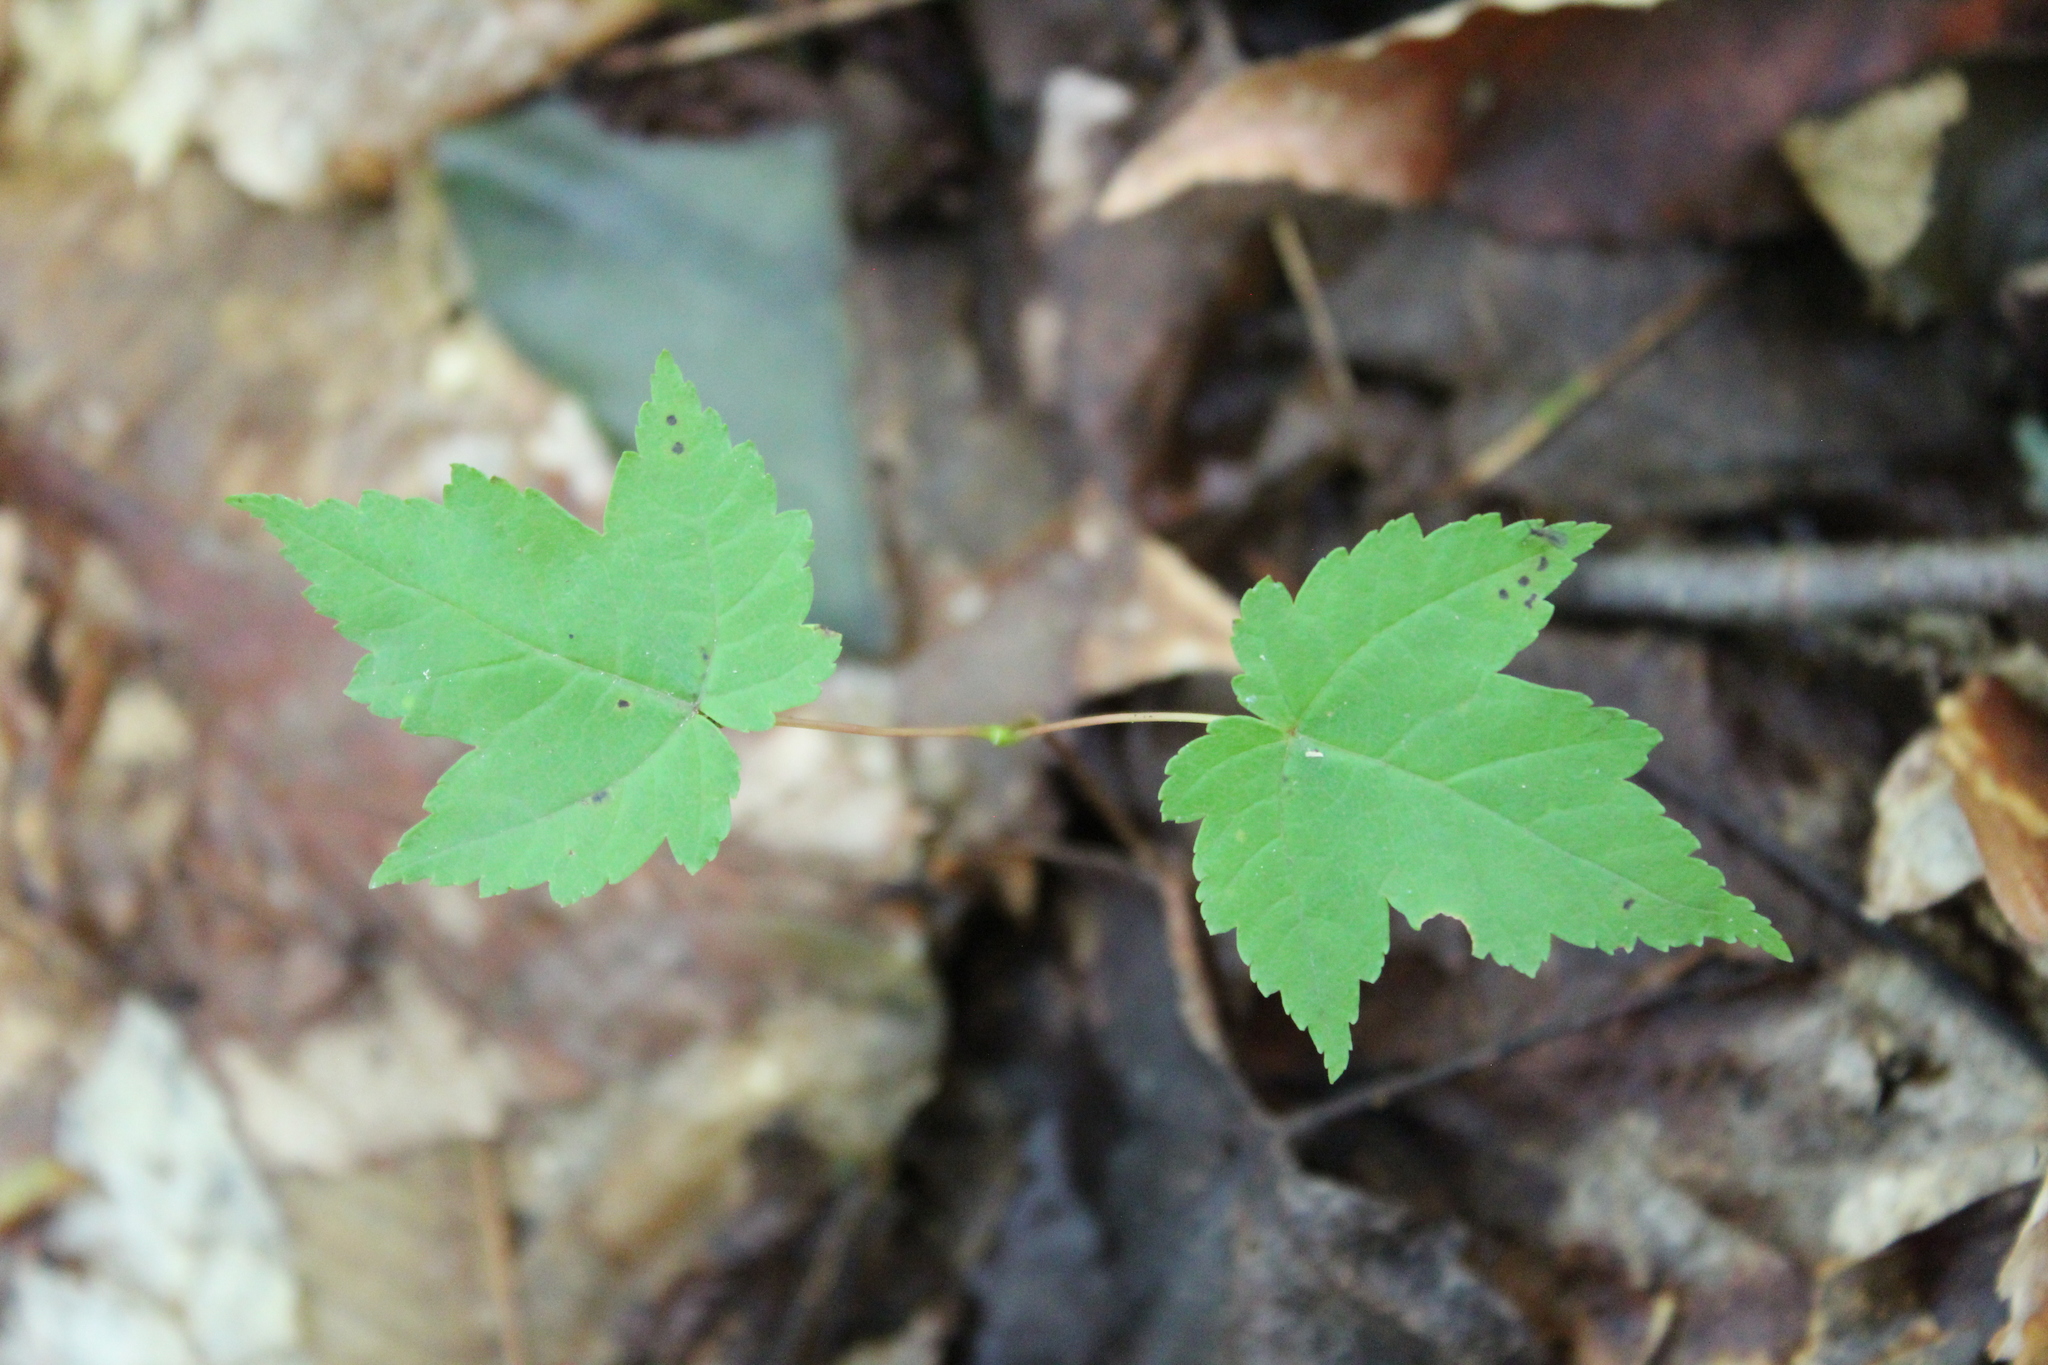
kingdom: Plantae
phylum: Tracheophyta
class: Magnoliopsida
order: Sapindales
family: Sapindaceae
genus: Acer
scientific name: Acer rubrum
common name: Red maple
